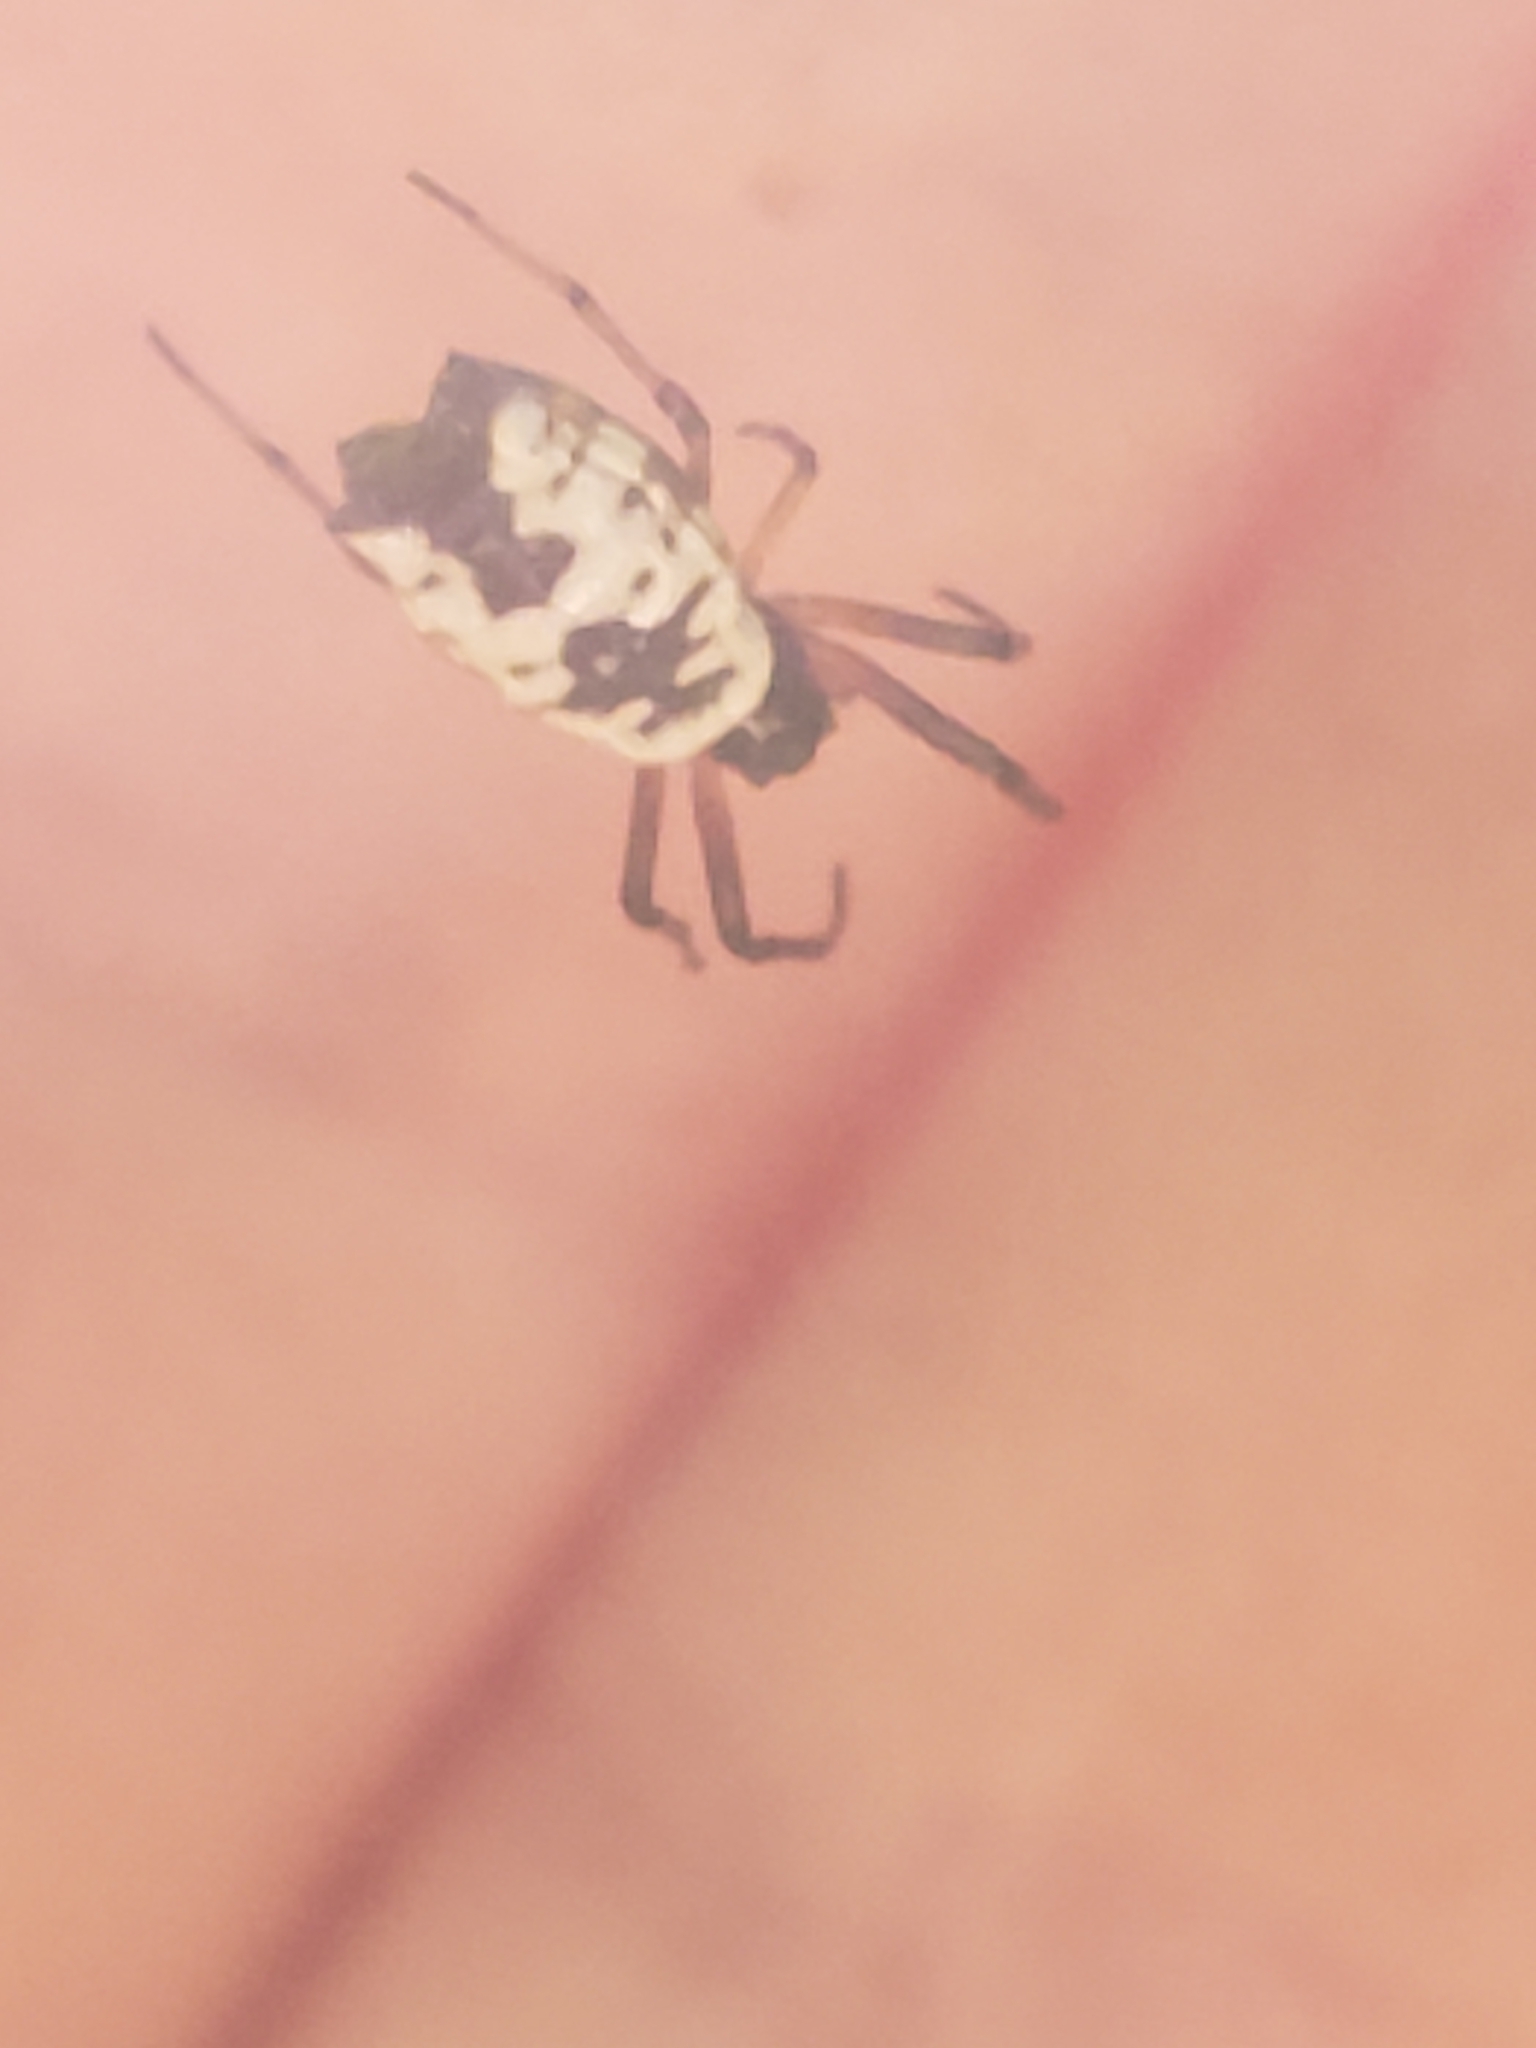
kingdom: Animalia
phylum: Arthropoda
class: Arachnida
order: Araneae
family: Araneidae
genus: Micrathena
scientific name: Micrathena mitrata
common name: Orb weavers
